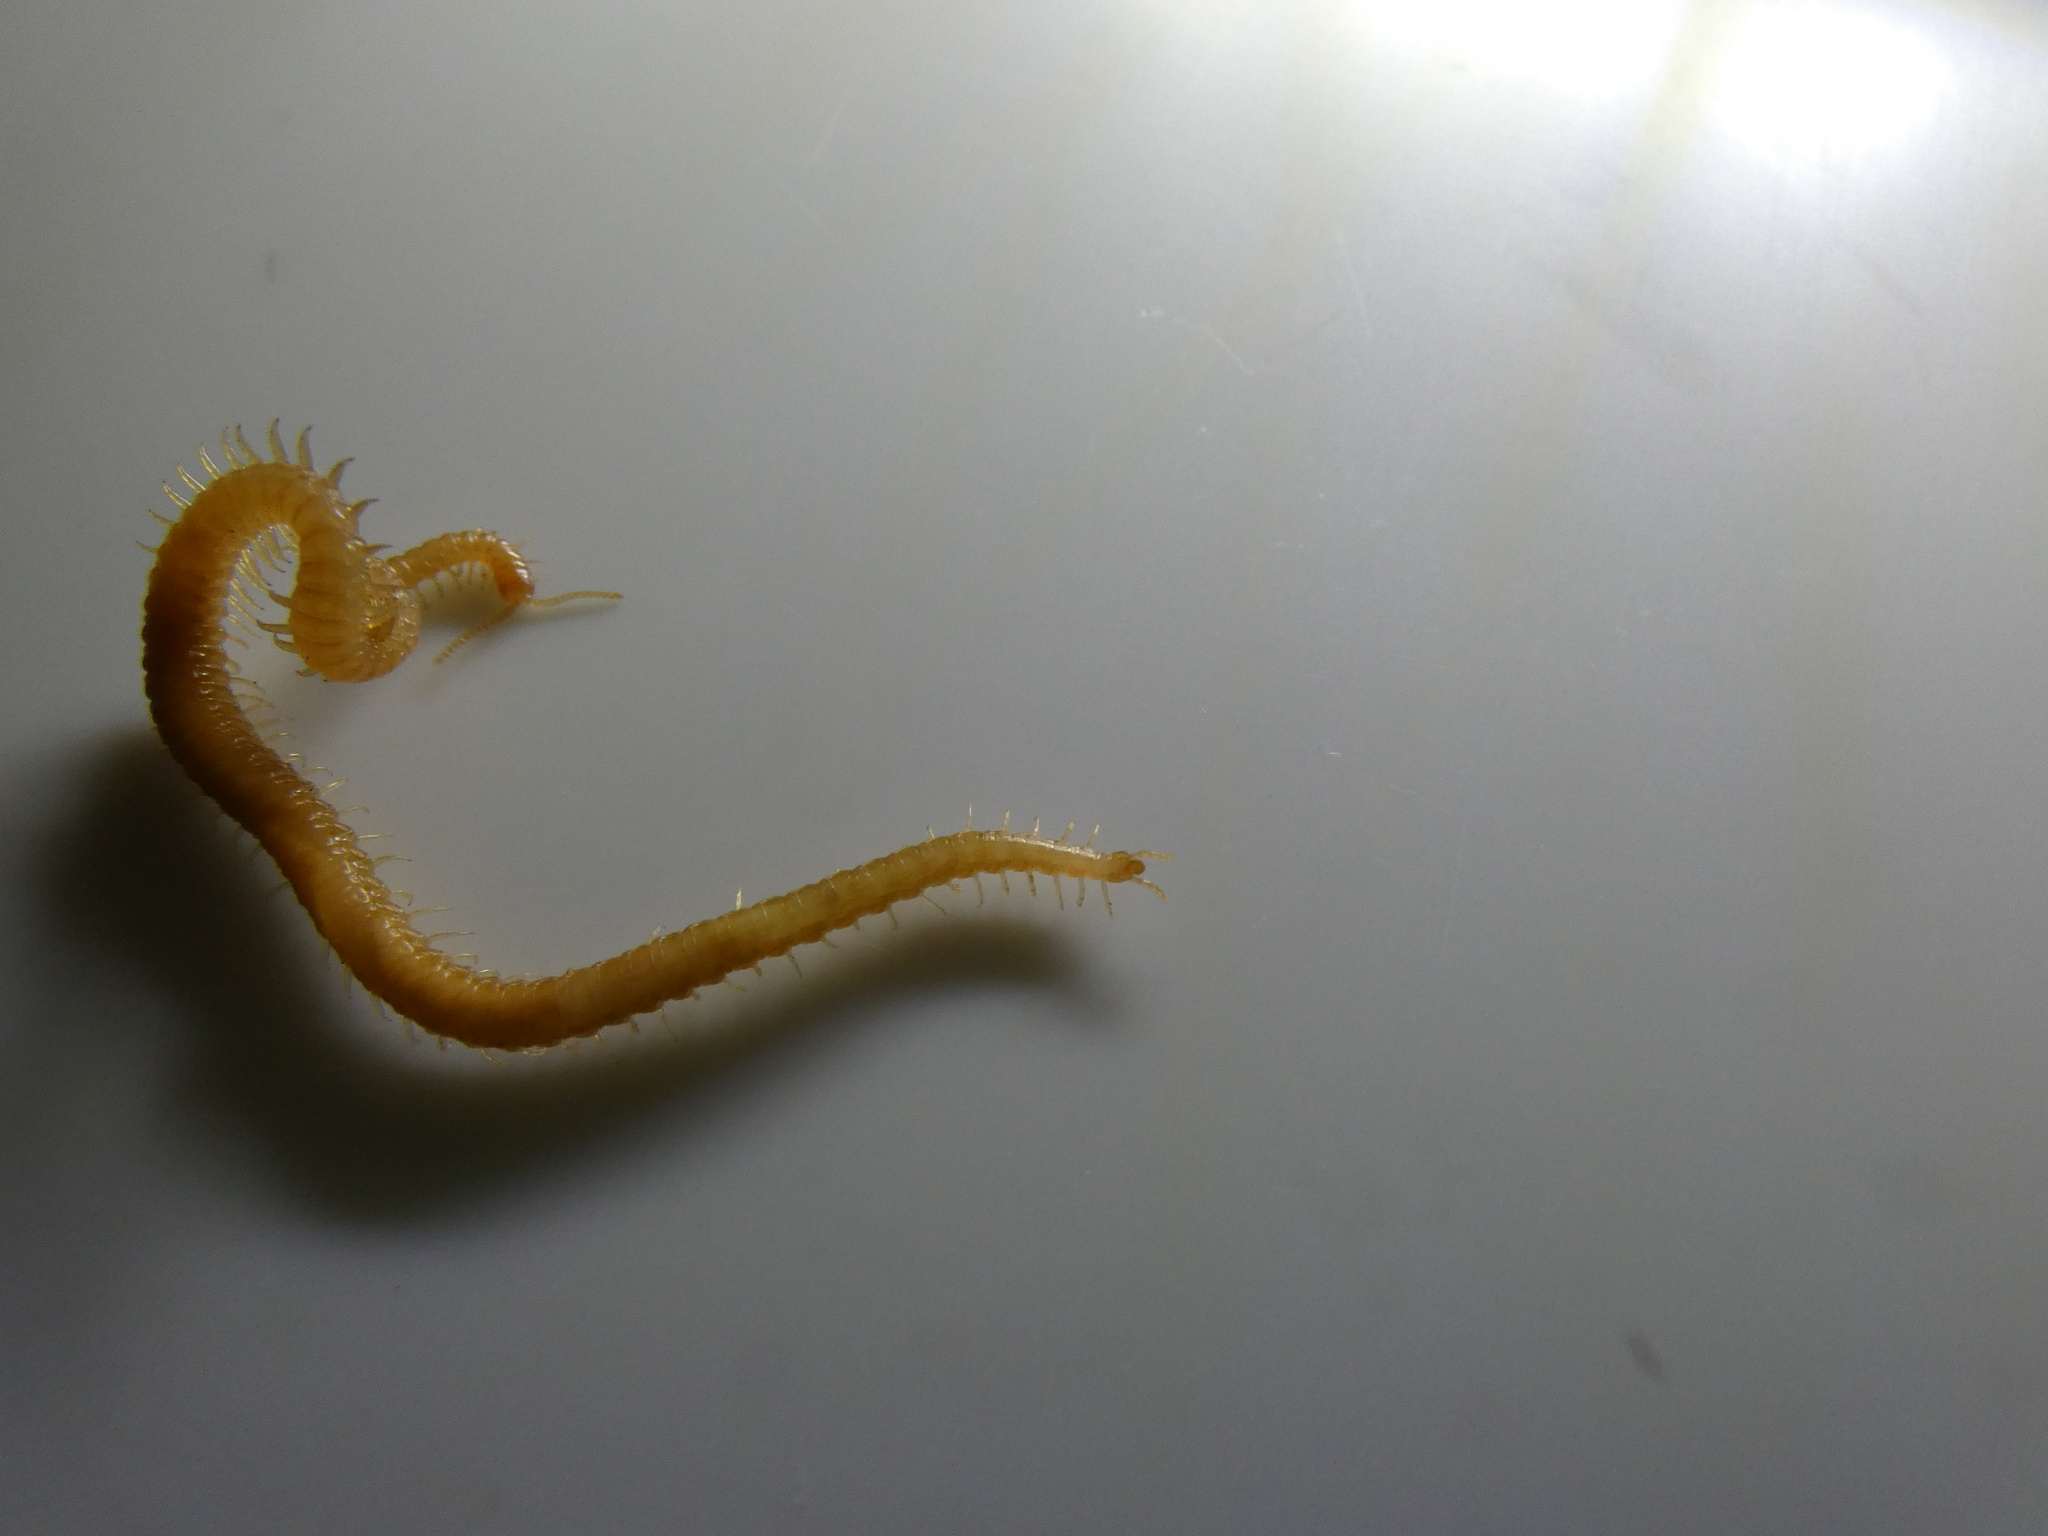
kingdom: Animalia
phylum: Arthropoda
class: Chilopoda
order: Geophilomorpha
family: Himantariidae
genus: Stigmatogaster
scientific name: Stigmatogaster subterranea
